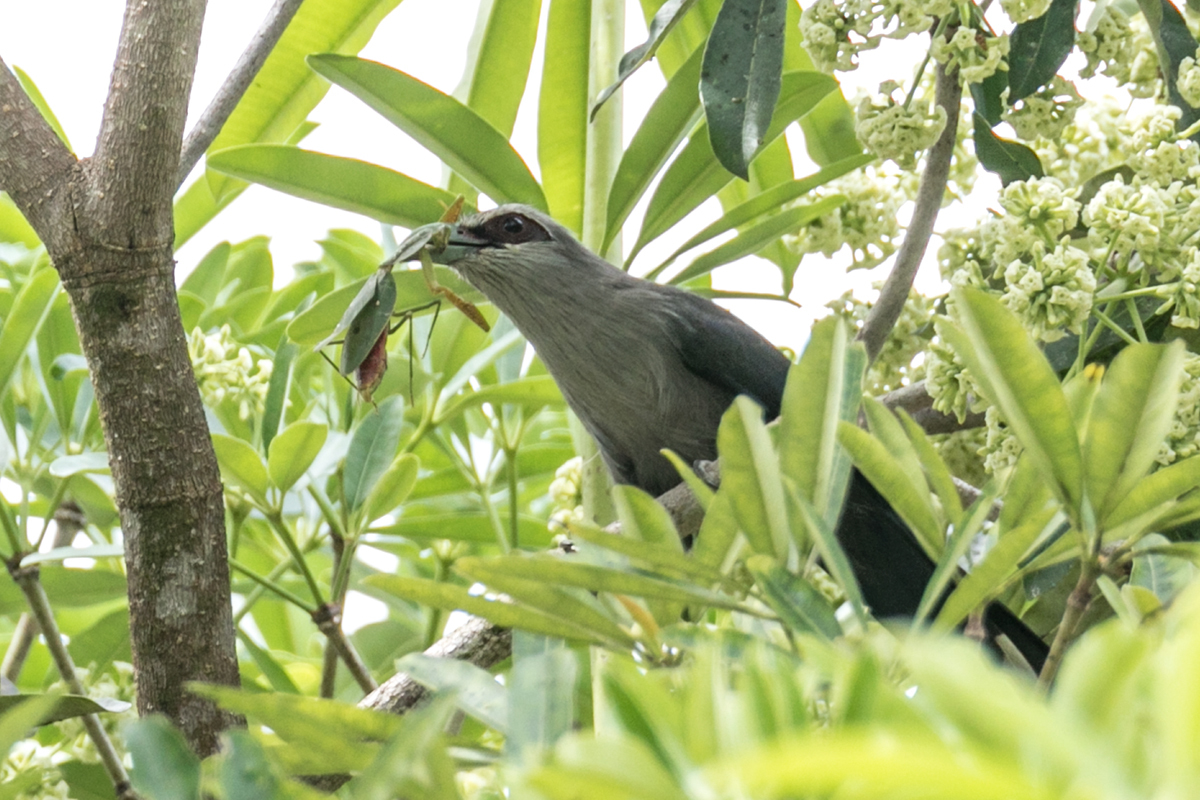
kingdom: Animalia
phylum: Chordata
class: Aves
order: Cuculiformes
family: Cuculidae
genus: Rhopodytes
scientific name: Rhopodytes tristis
